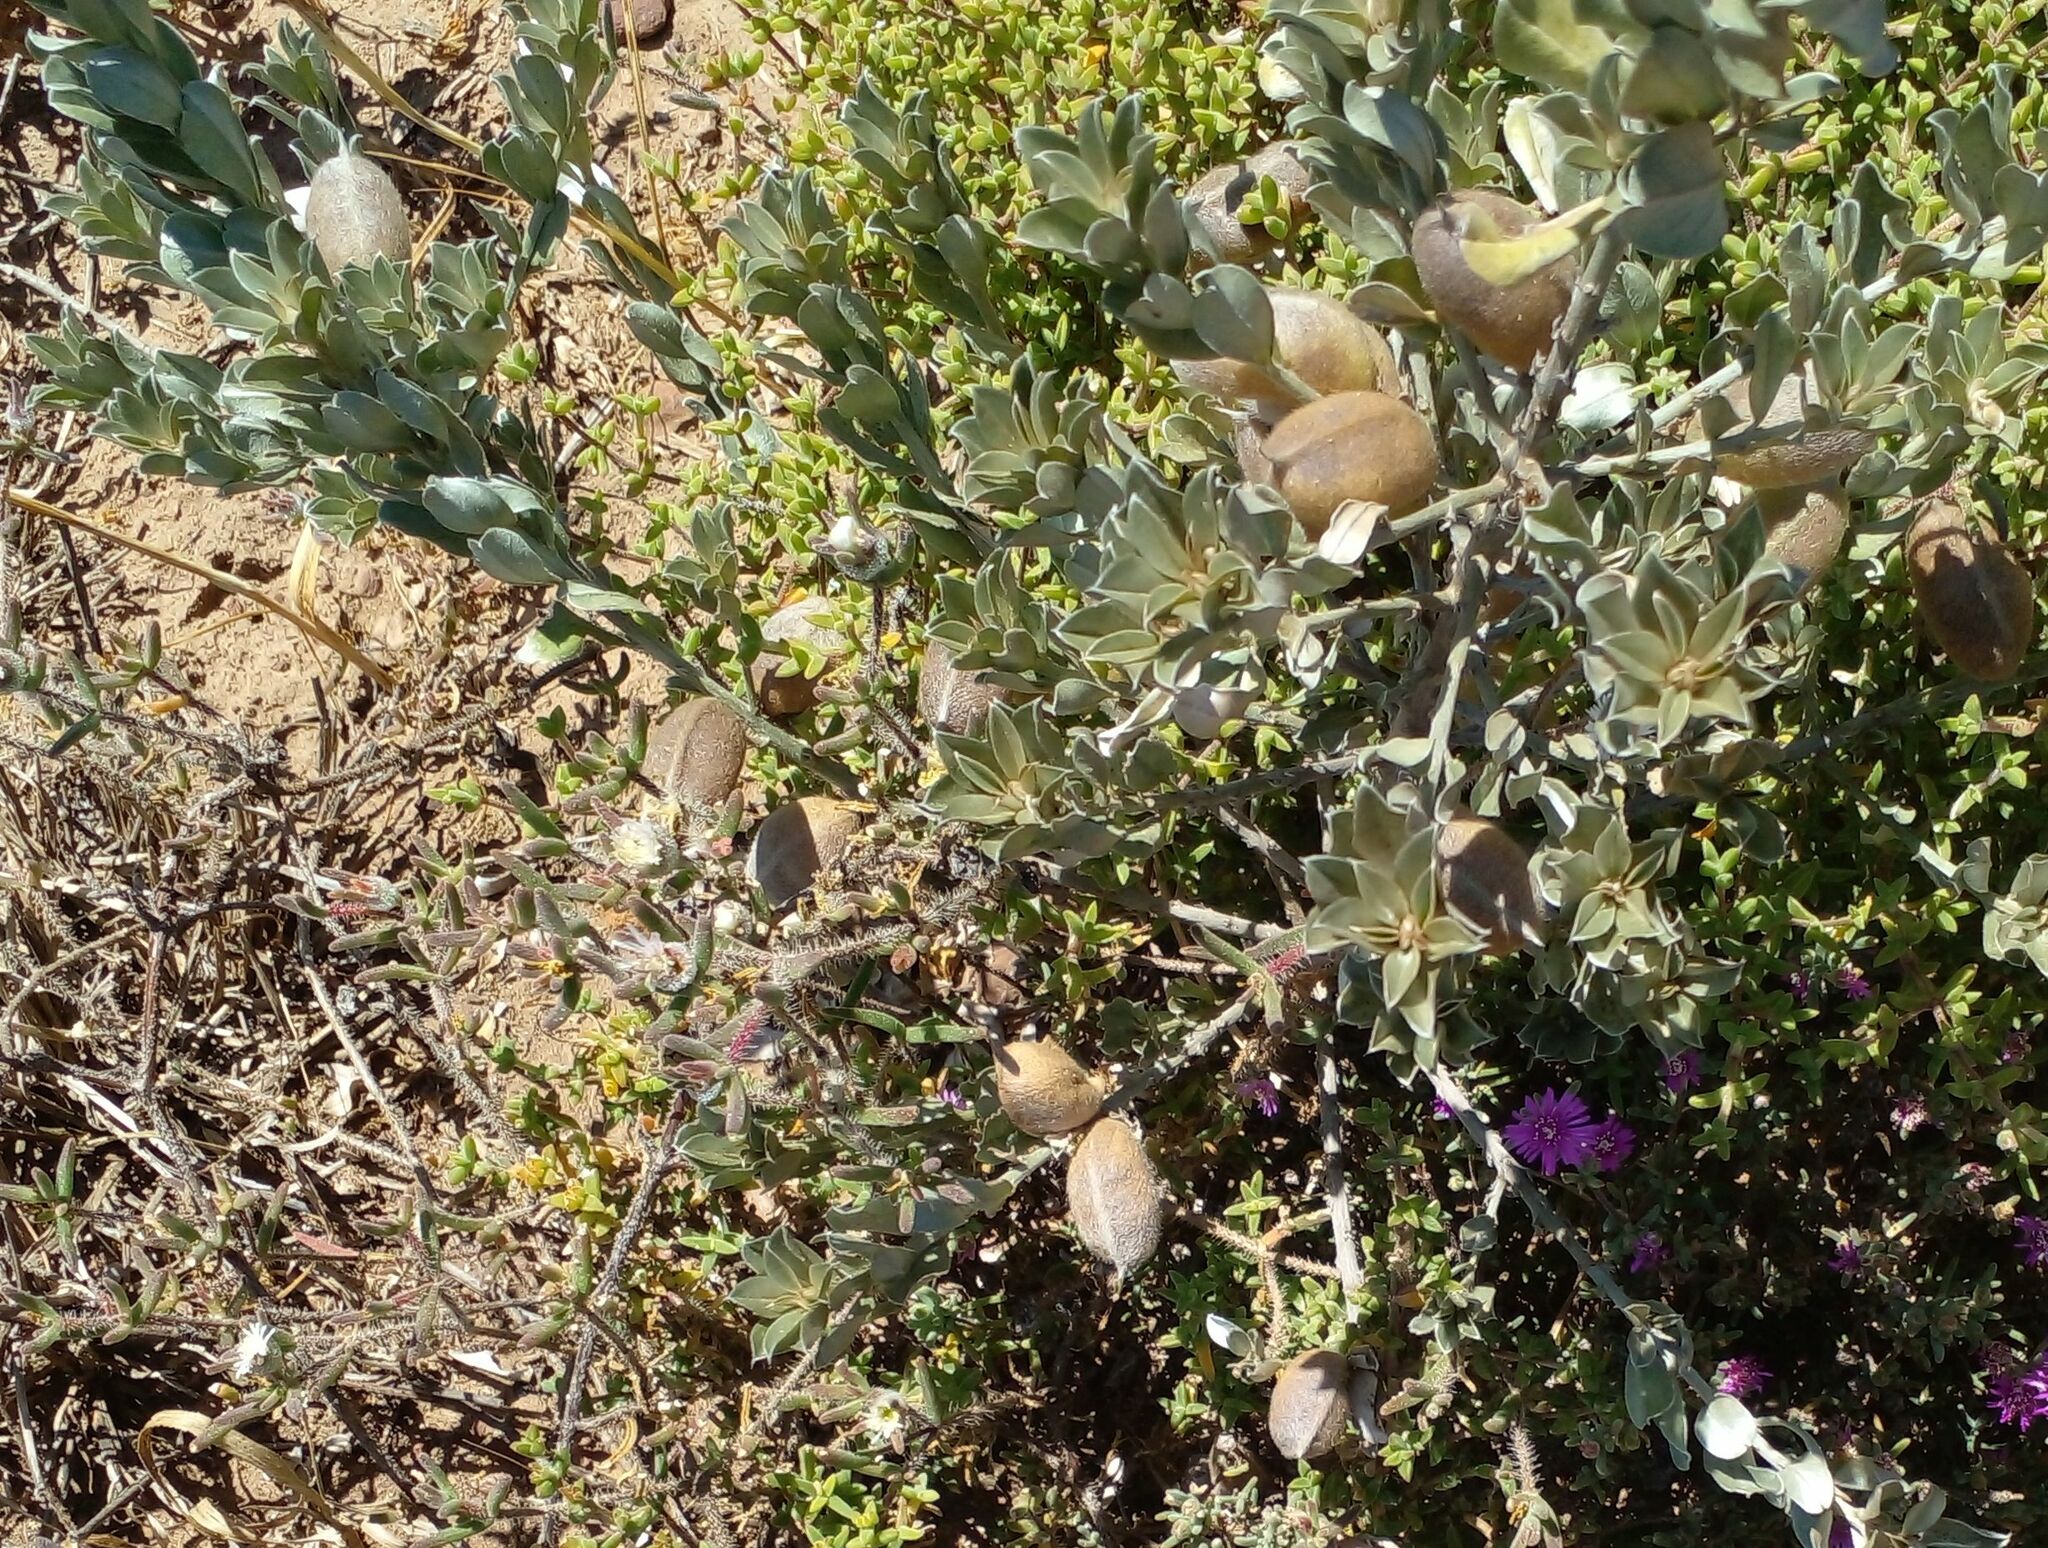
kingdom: Plantae
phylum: Tracheophyta
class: Magnoliopsida
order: Fabales
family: Fabaceae
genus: Podalyria
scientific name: Podalyria sericea
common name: Silver podalyria
